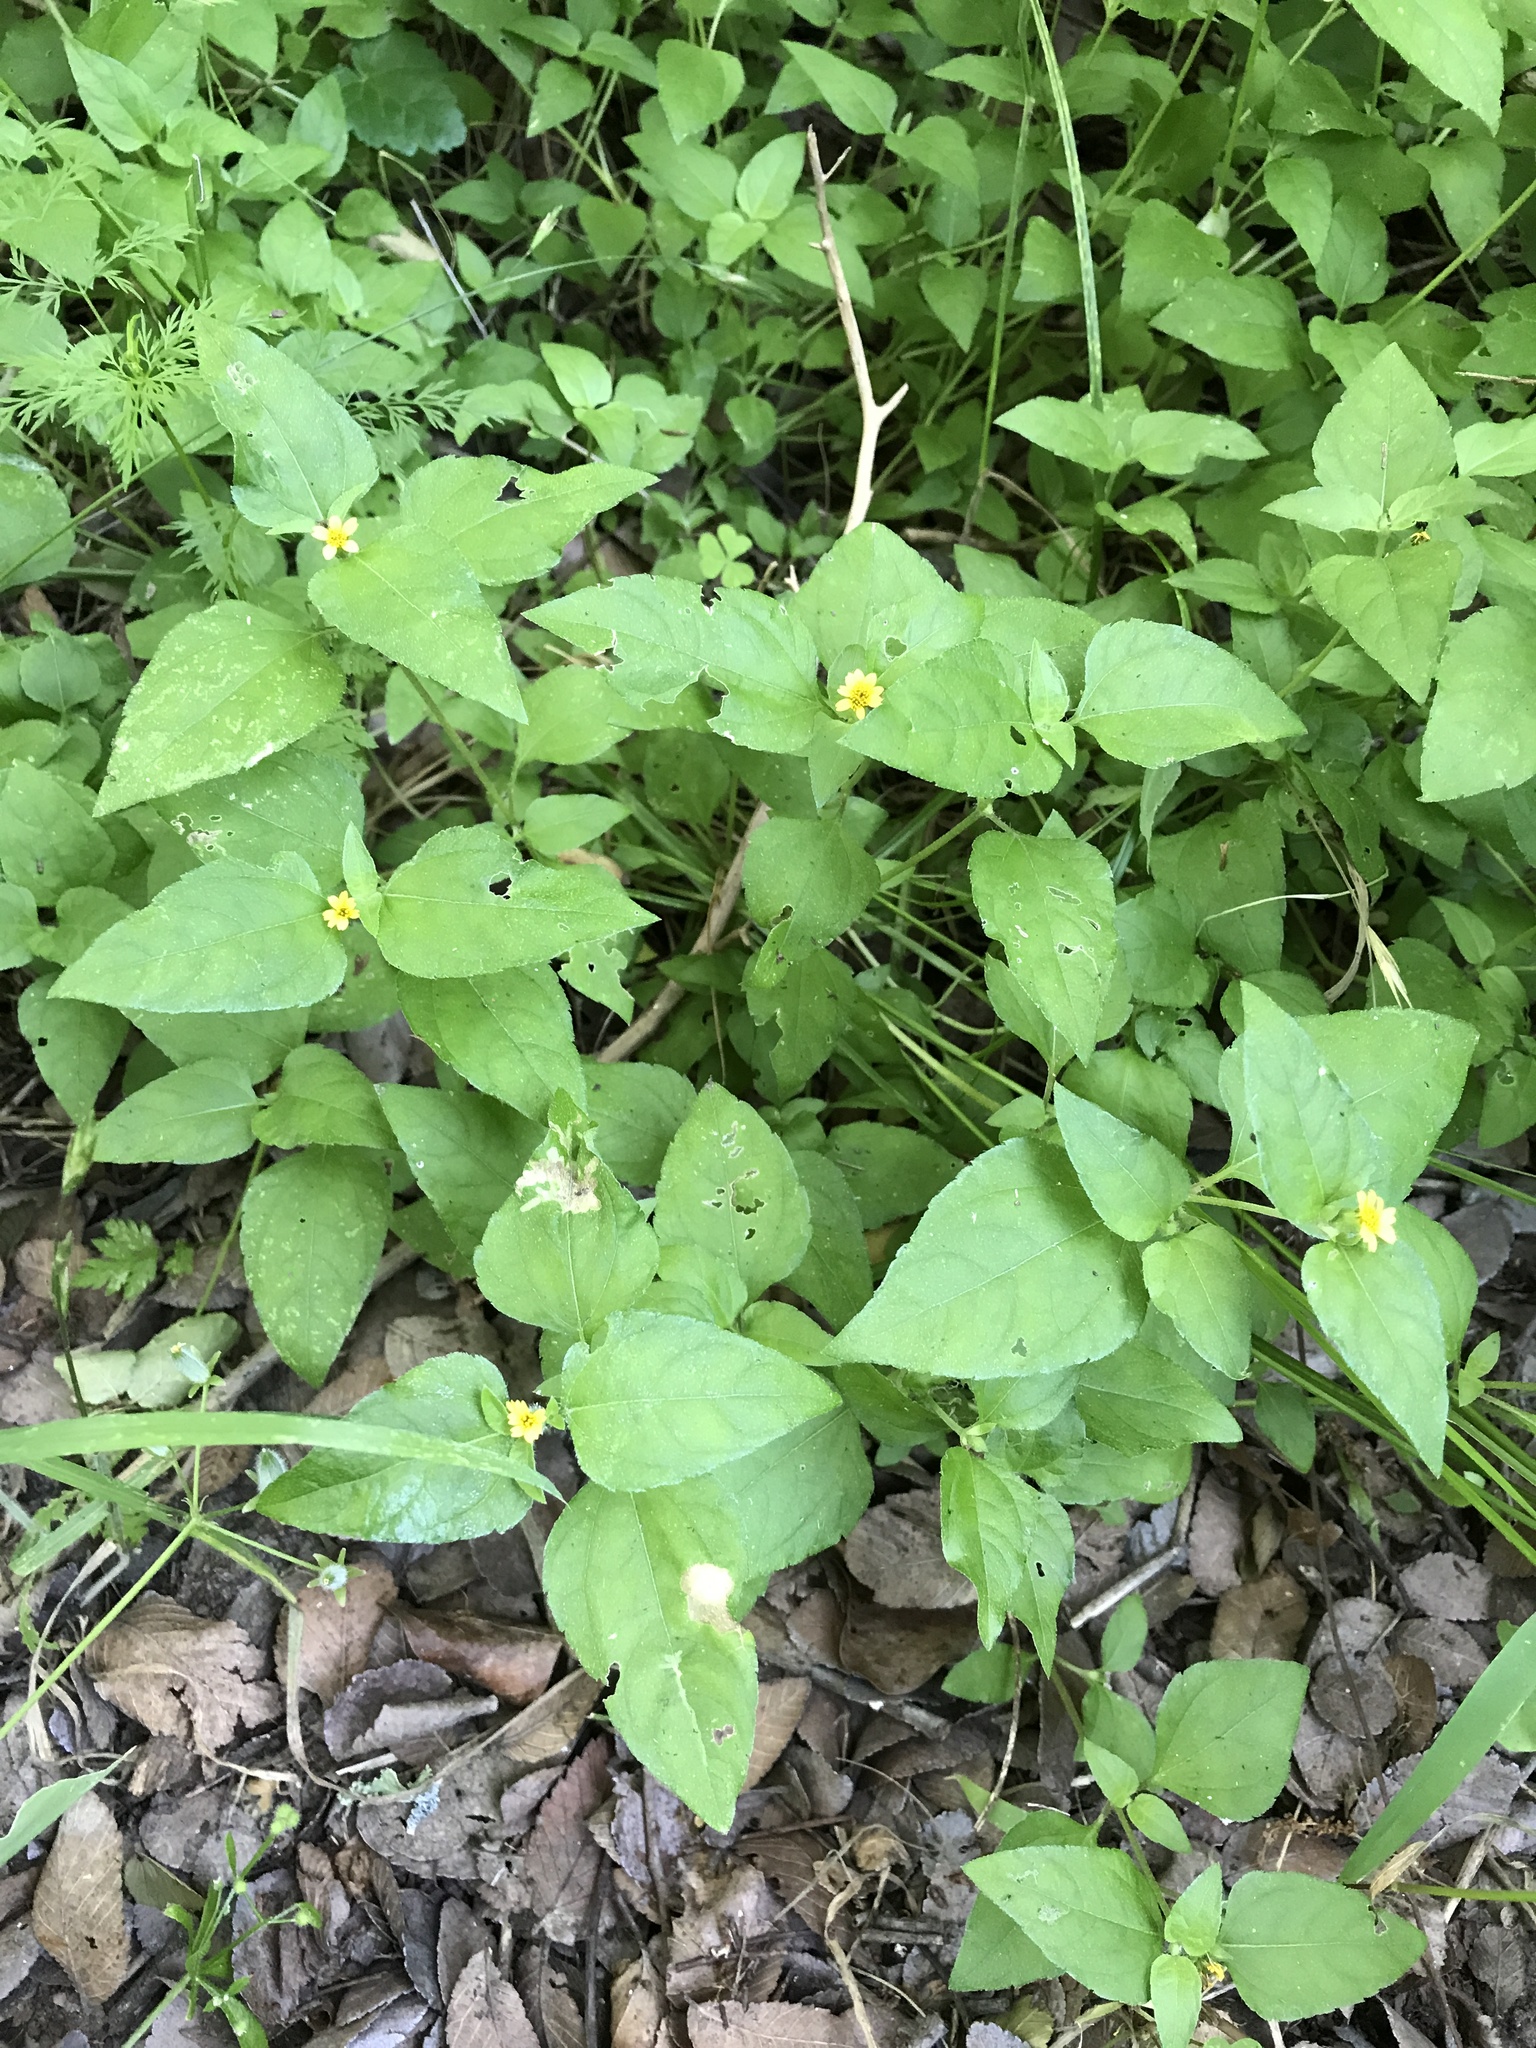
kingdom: Plantae
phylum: Tracheophyta
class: Magnoliopsida
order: Asterales
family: Asteraceae
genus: Calyptocarpus
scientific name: Calyptocarpus vialis
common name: Straggler daisy
